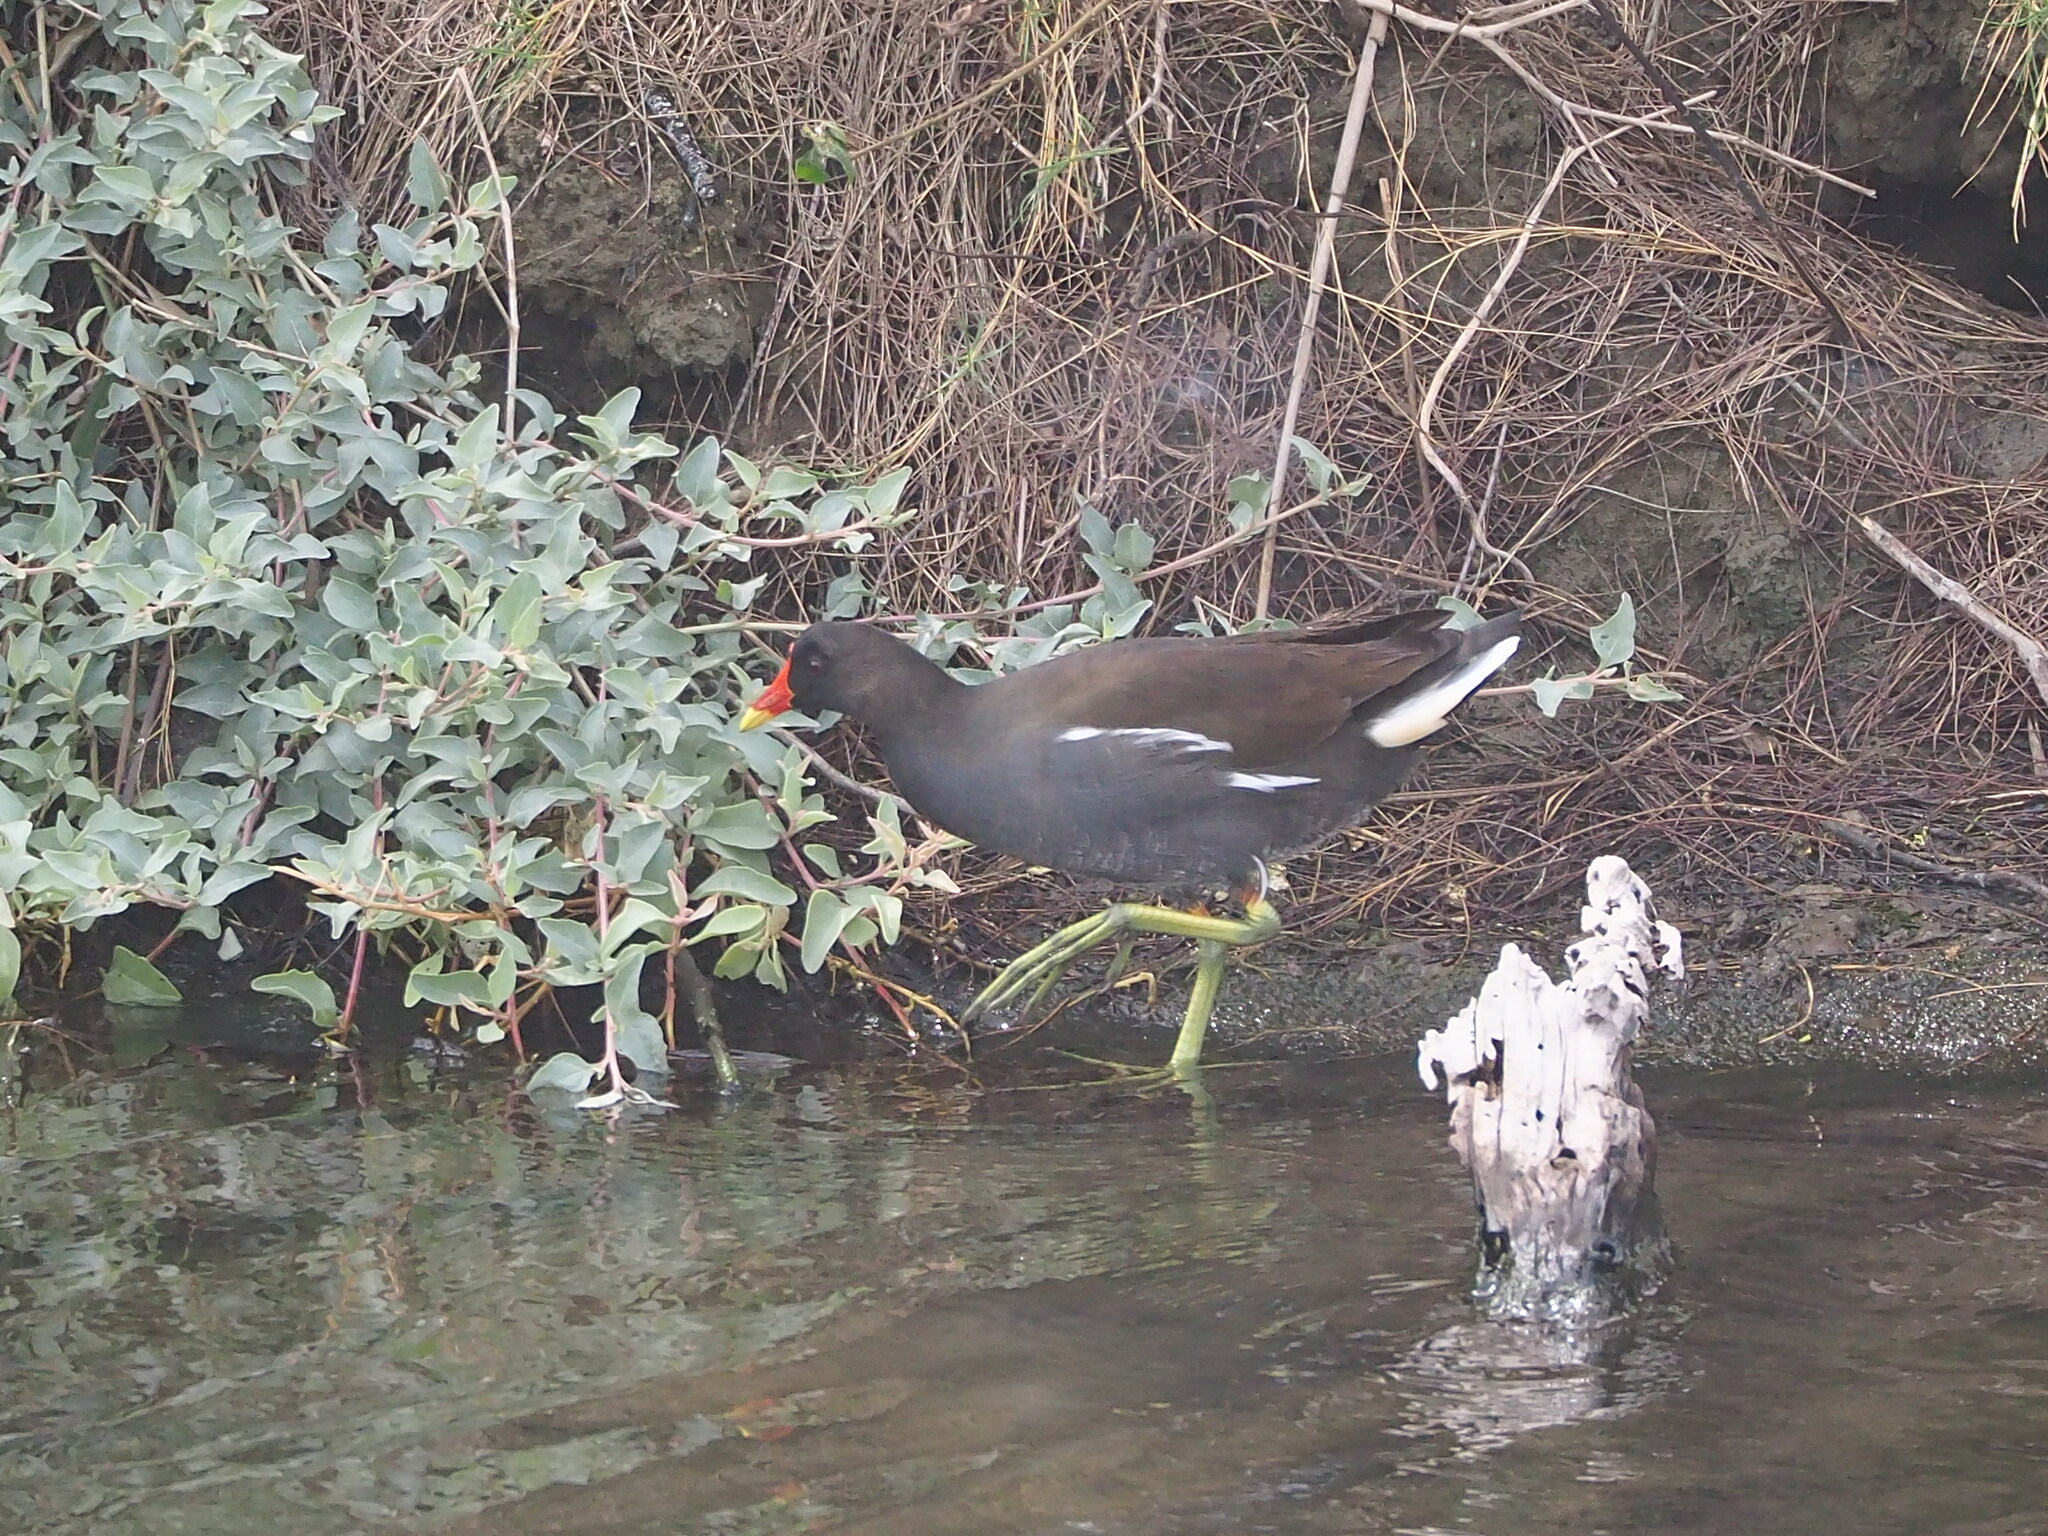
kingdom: Animalia
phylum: Chordata
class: Aves
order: Gruiformes
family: Rallidae
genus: Gallinula
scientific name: Gallinula chloropus
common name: Common moorhen
